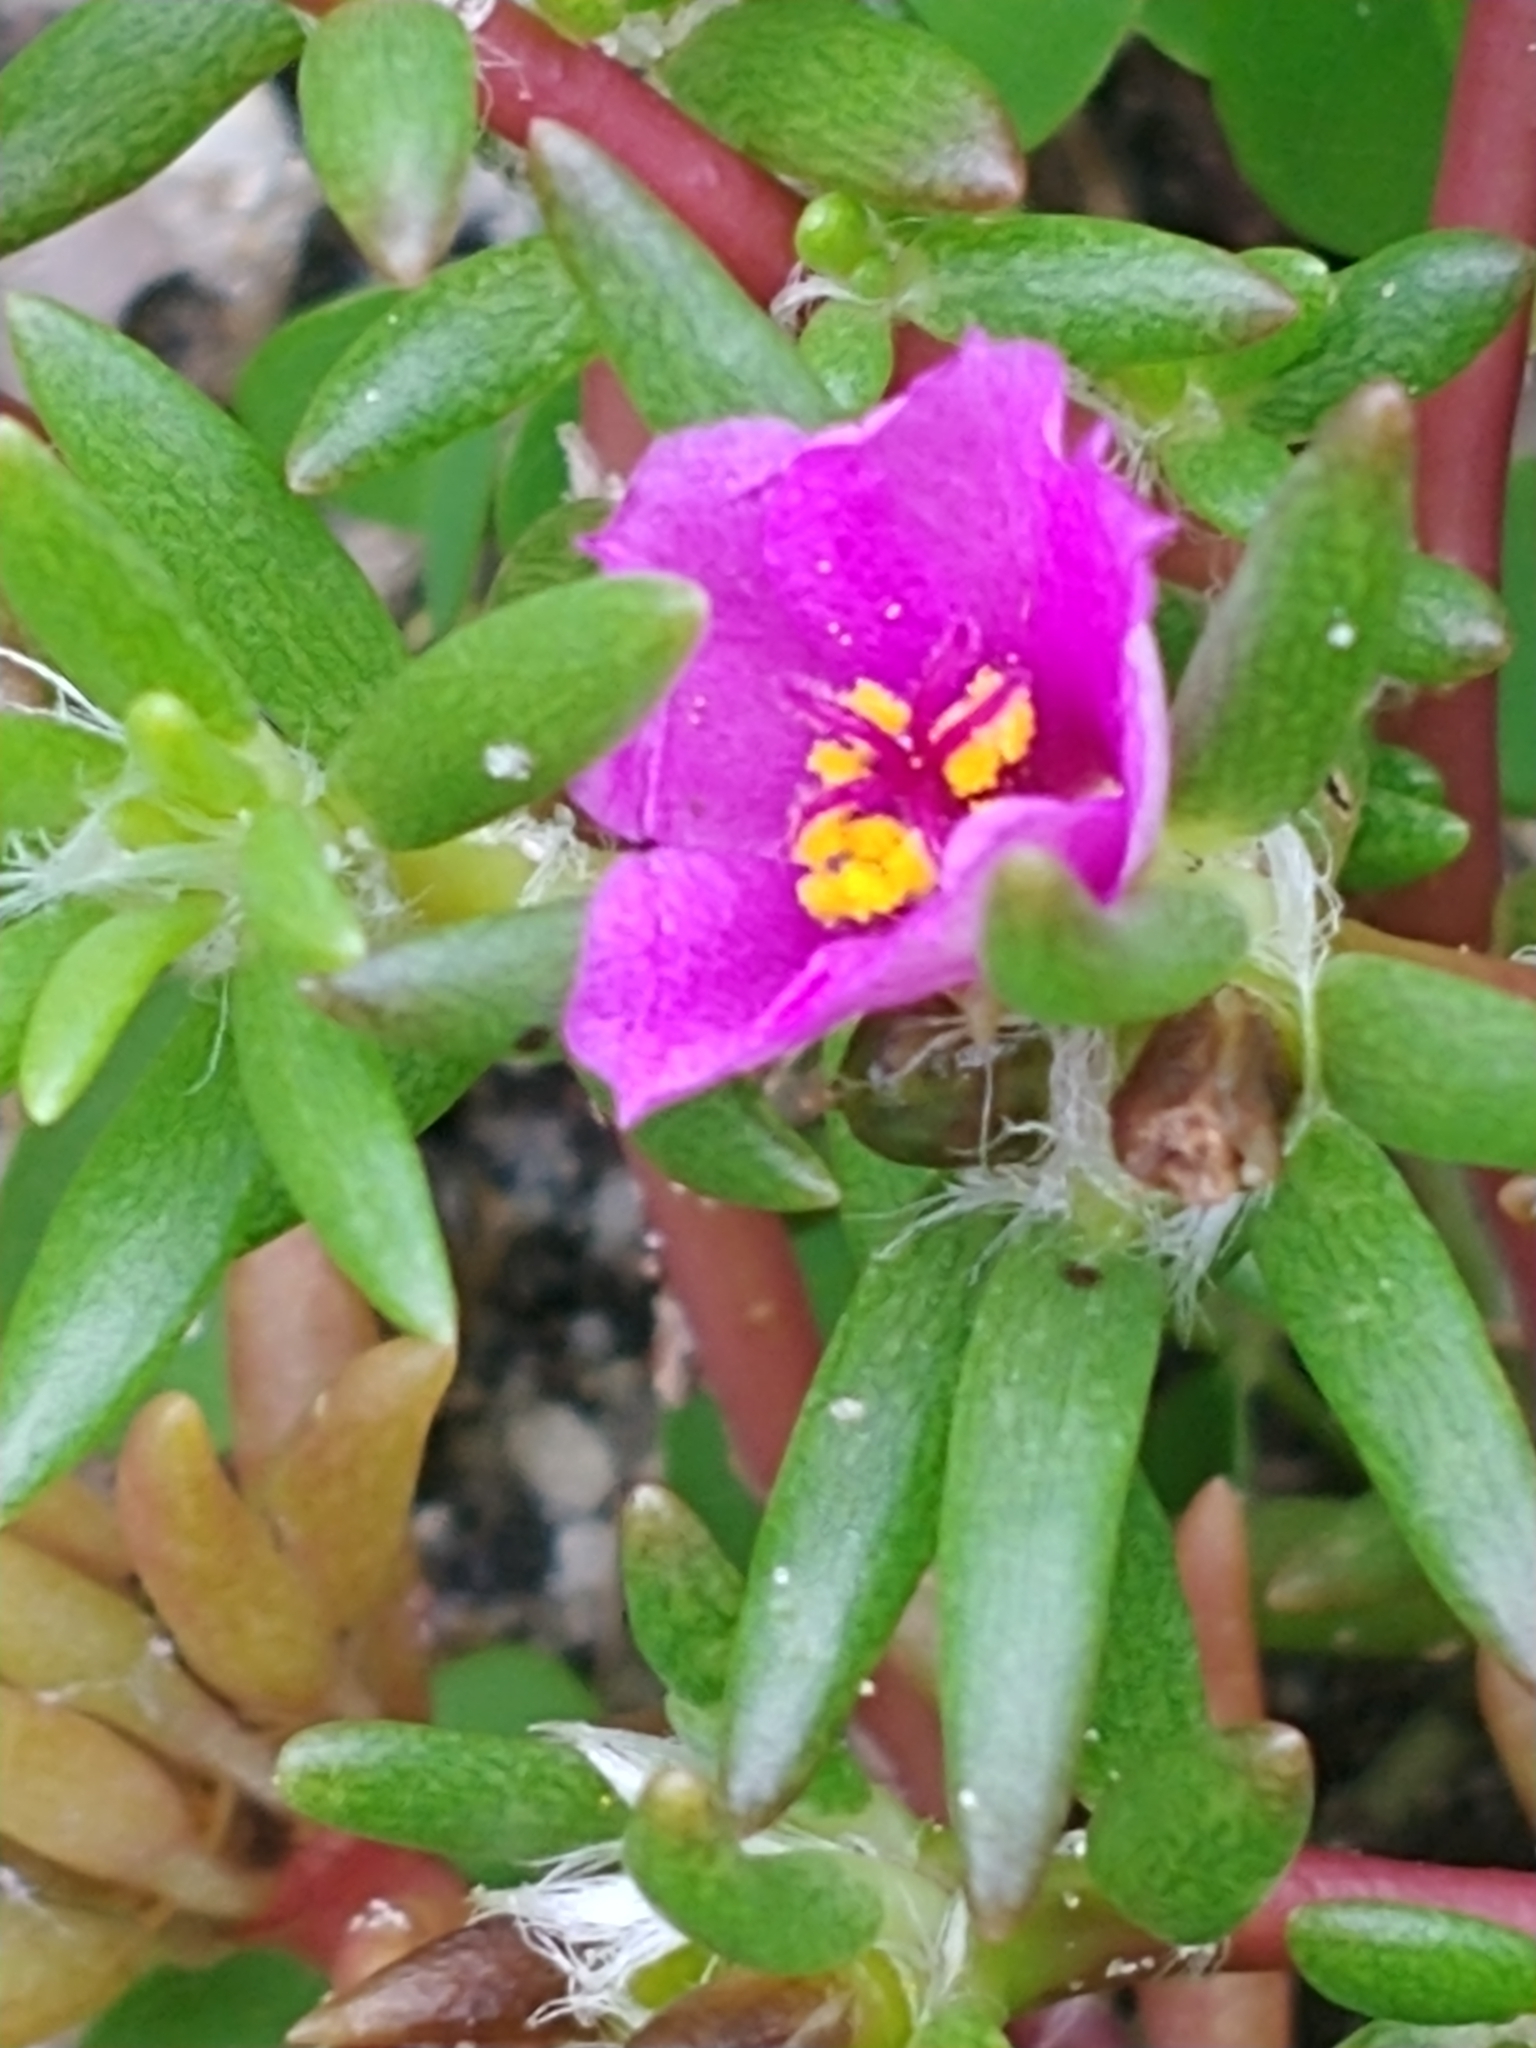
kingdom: Plantae
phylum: Tracheophyta
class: Magnoliopsida
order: Caryophyllales
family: Portulacaceae
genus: Portulaca
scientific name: Portulaca pilosa
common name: Kiss me quick
